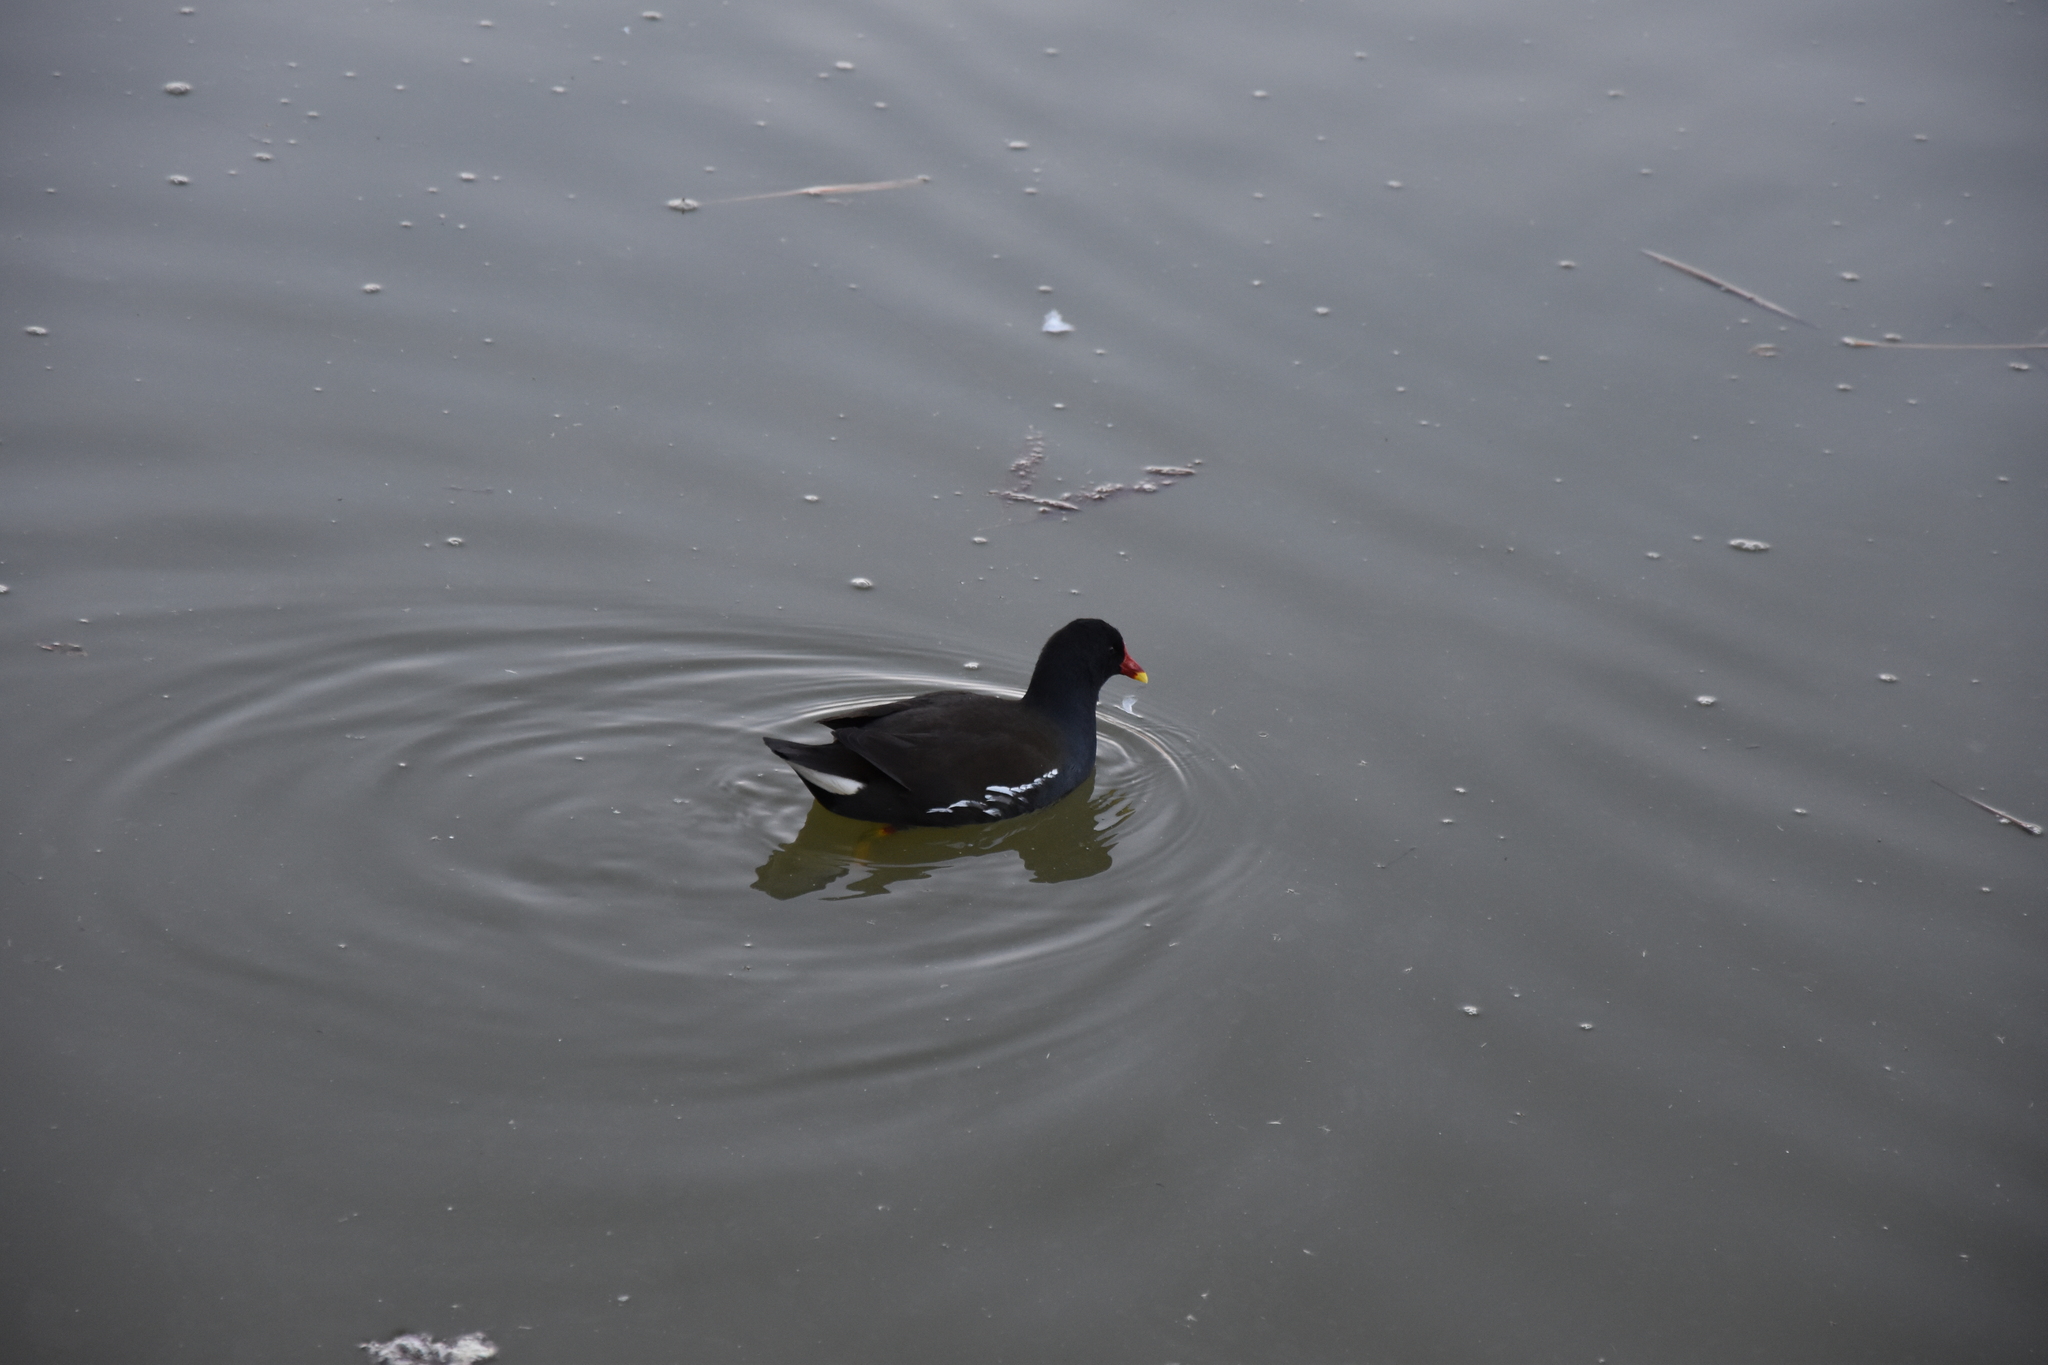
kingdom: Animalia
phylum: Chordata
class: Aves
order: Gruiformes
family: Rallidae
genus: Gallinula
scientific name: Gallinula chloropus
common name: Common moorhen
